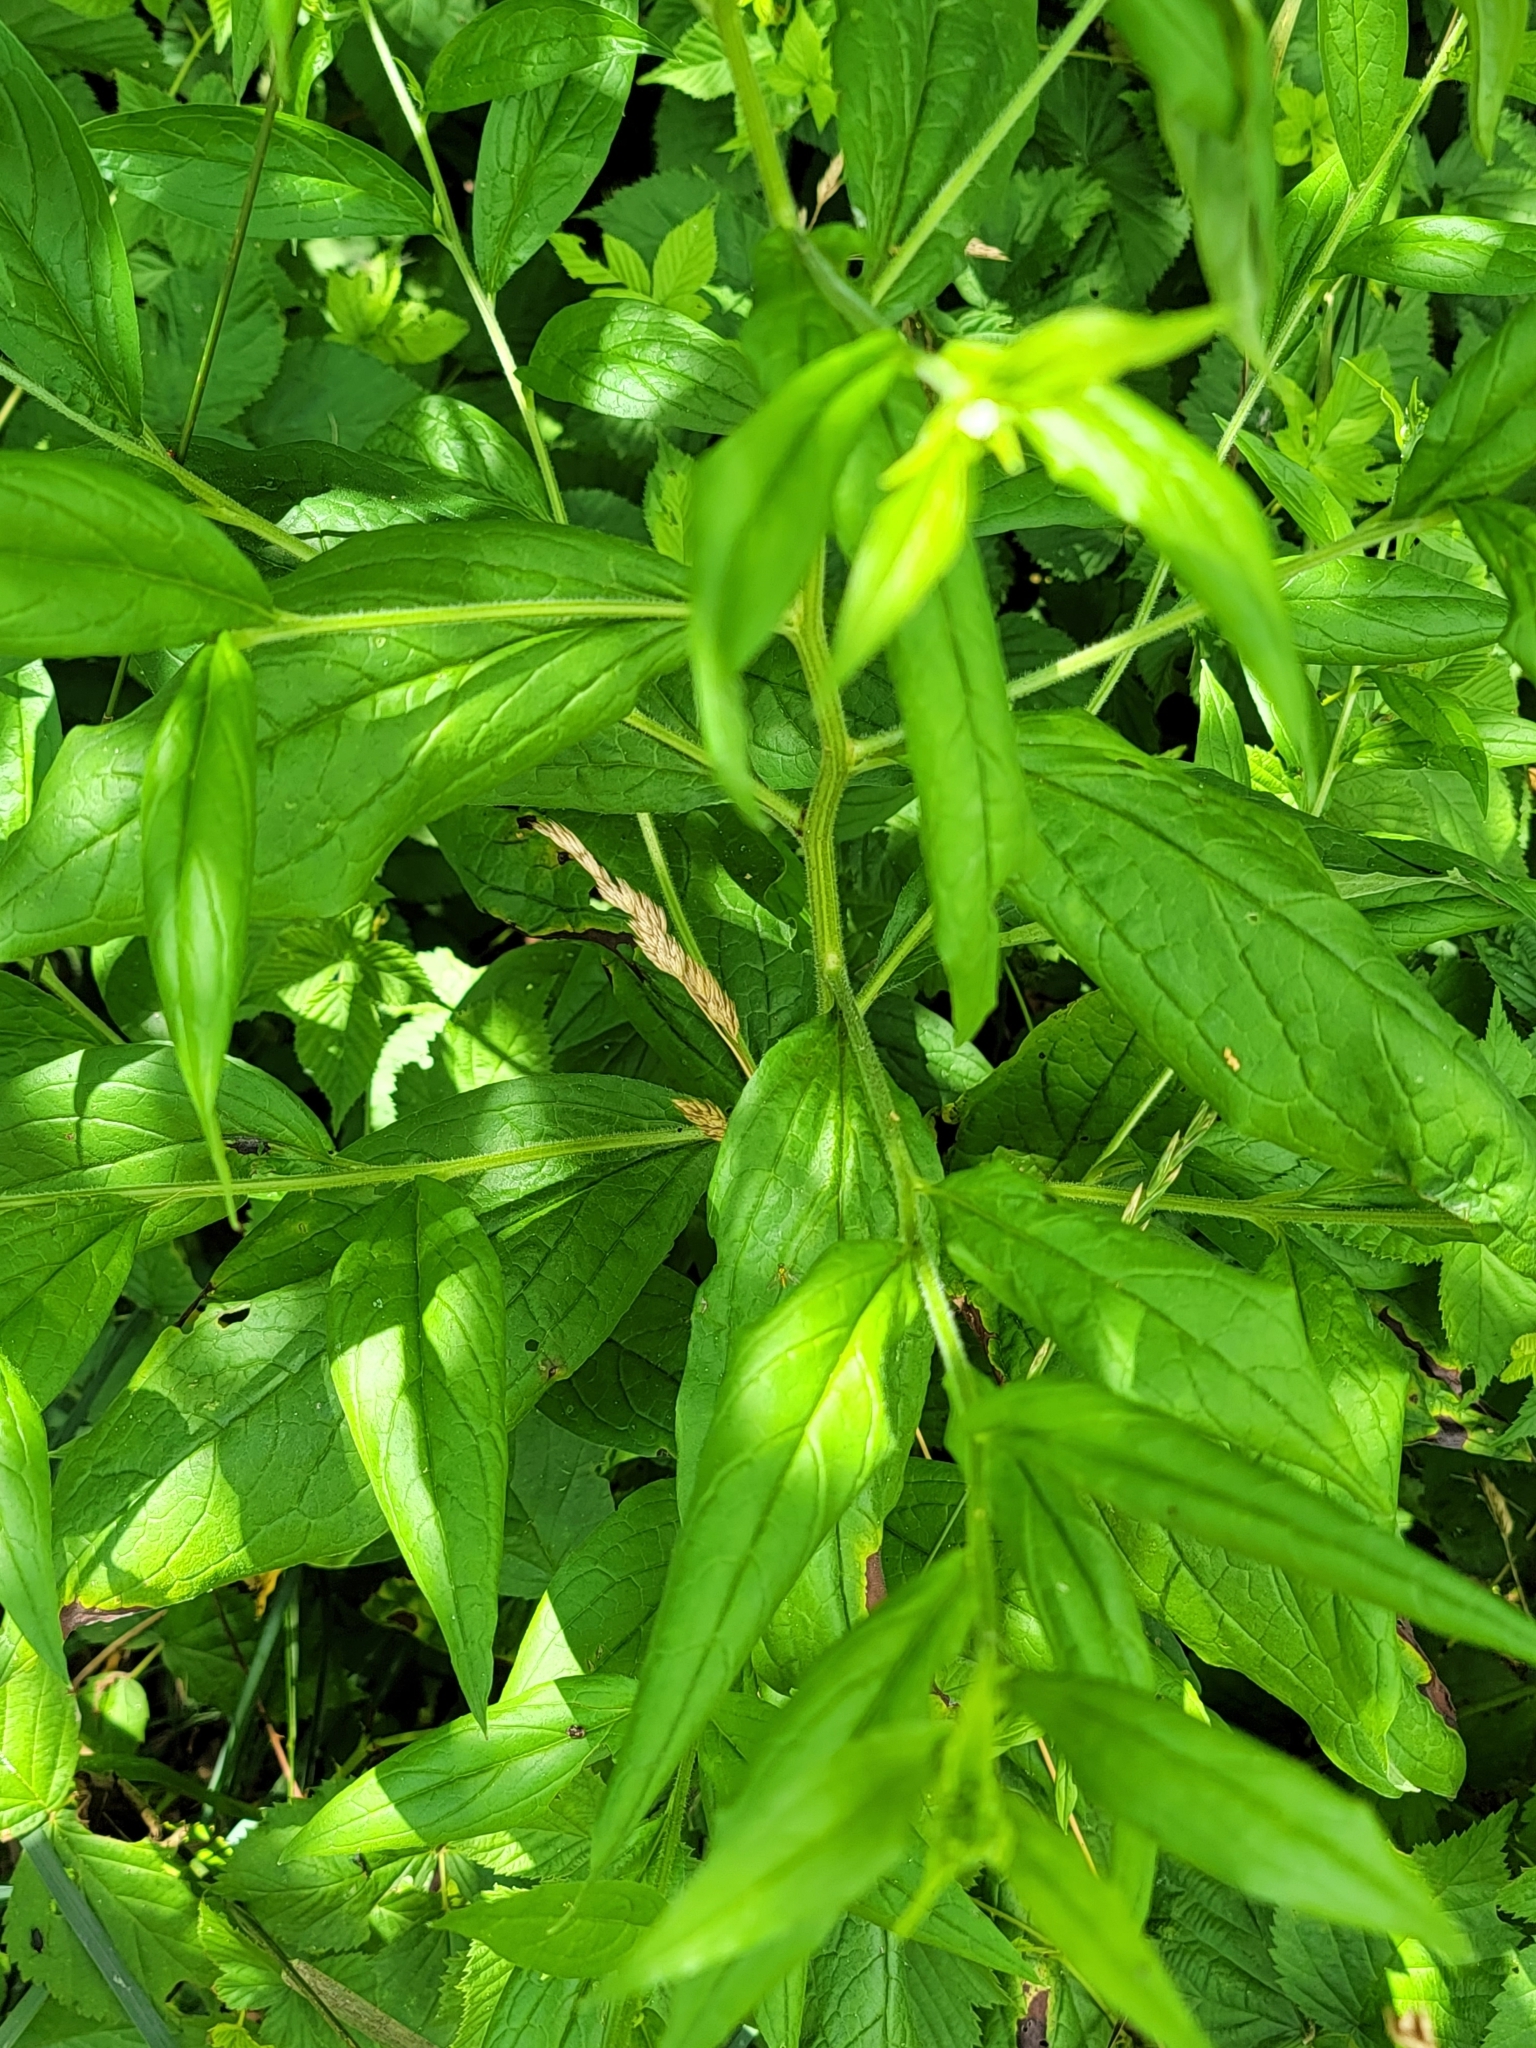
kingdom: Plantae
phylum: Tracheophyta
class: Magnoliopsida
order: Boraginales
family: Boraginaceae
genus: Hackelia
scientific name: Hackelia virginiana
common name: Beggar's-lice
